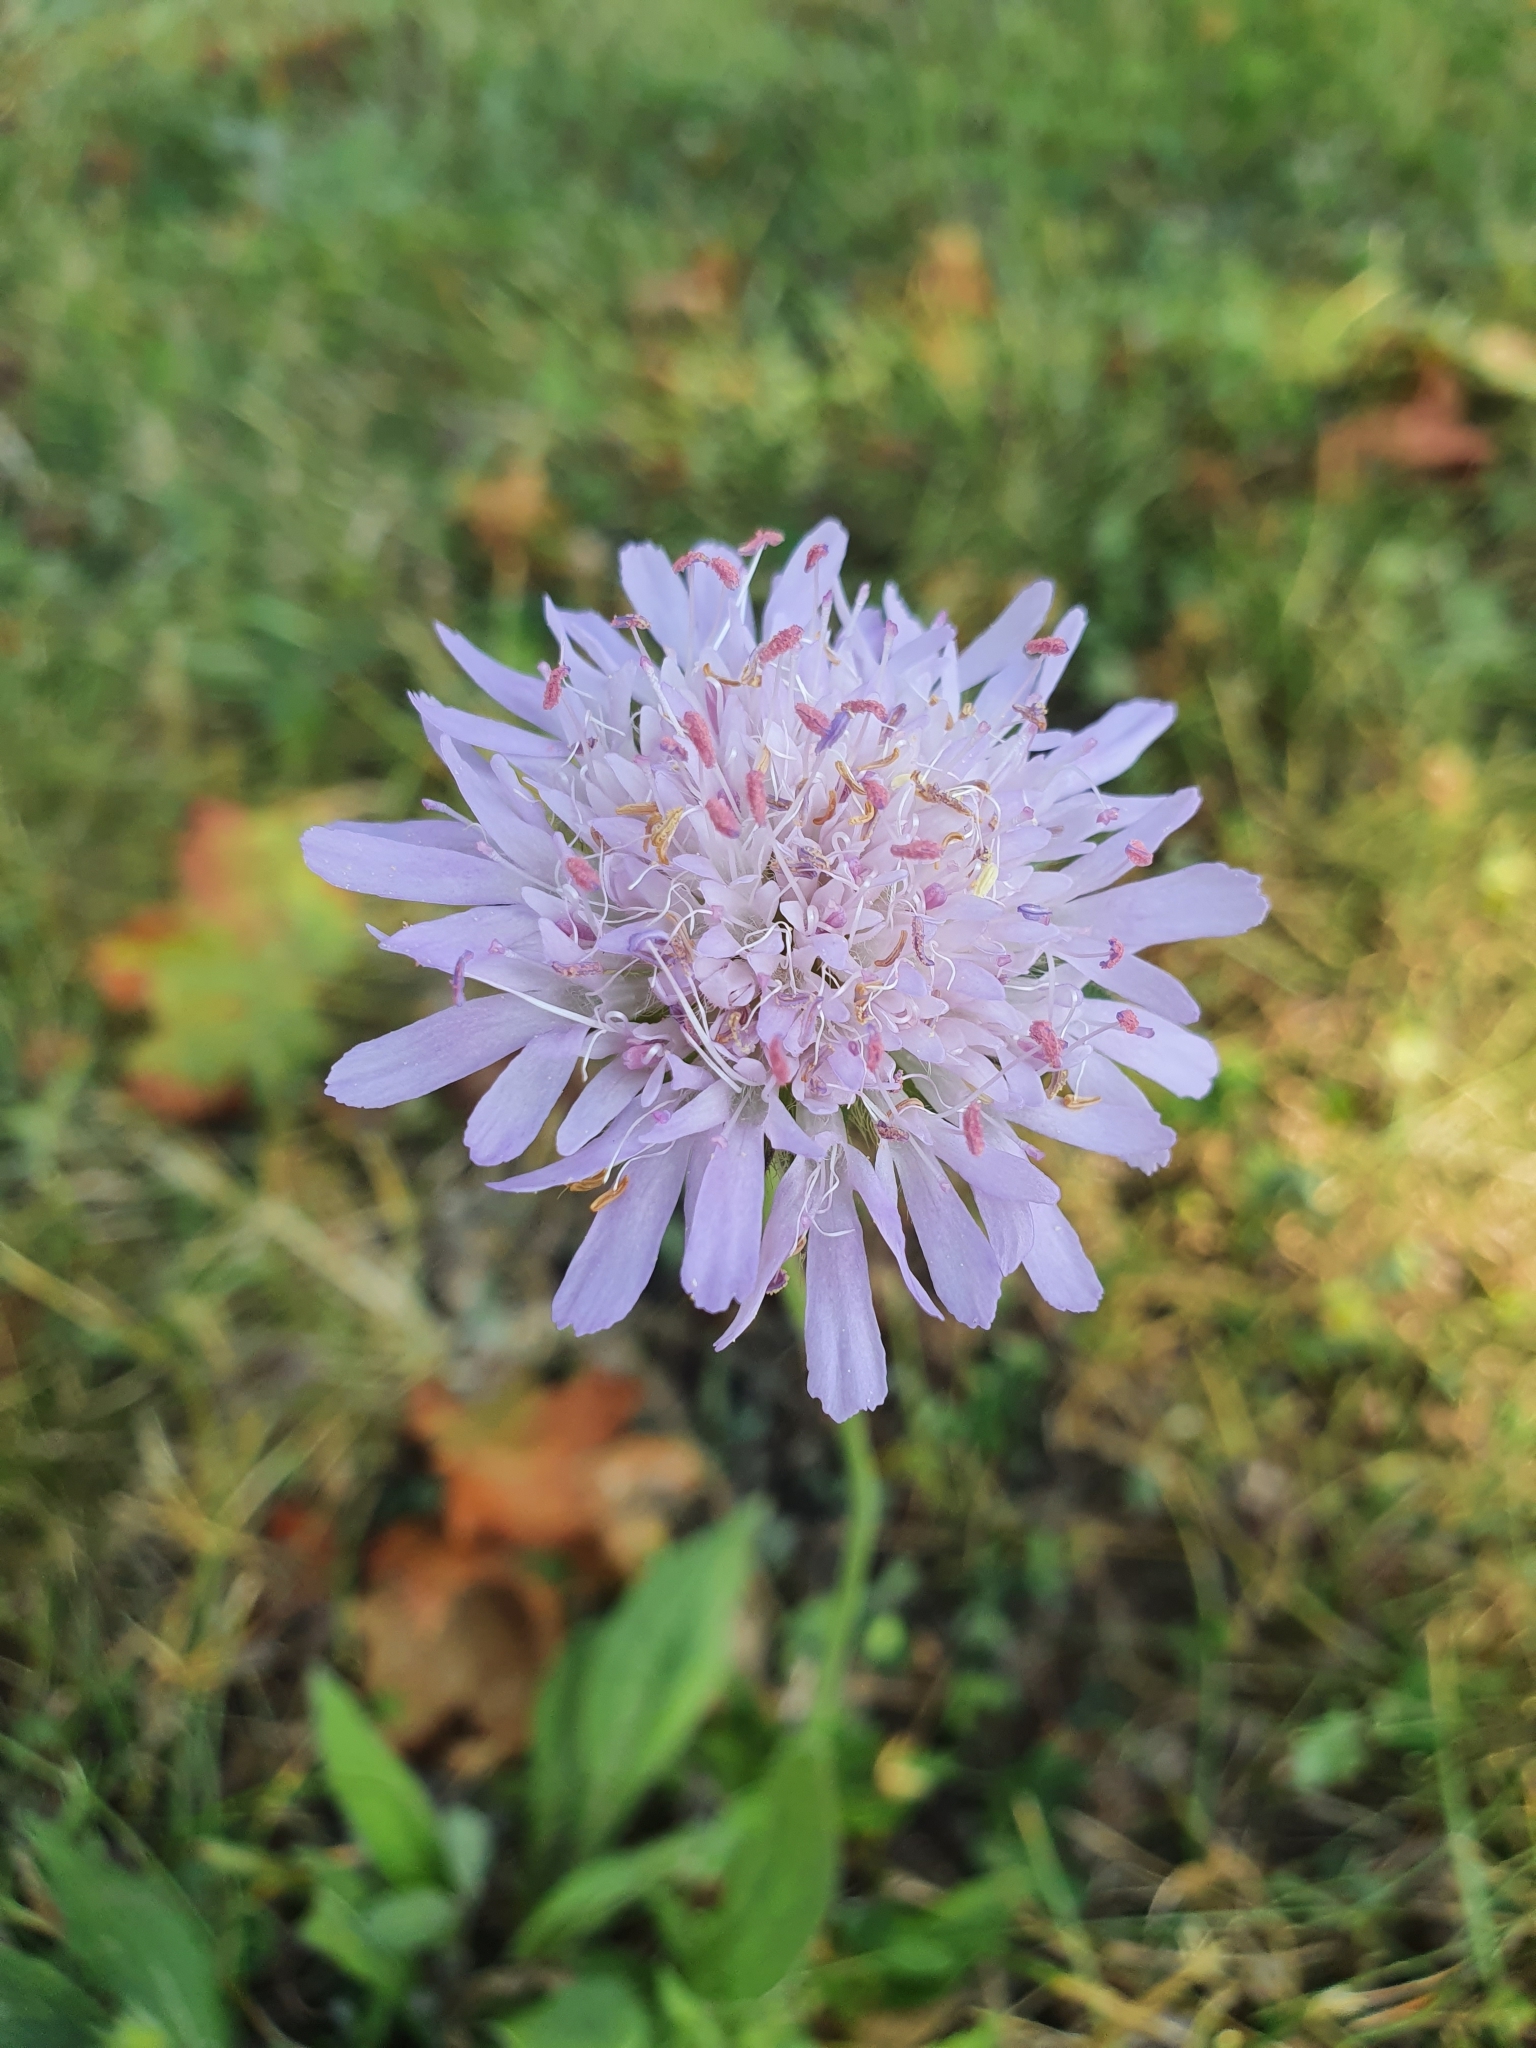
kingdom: Plantae
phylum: Tracheophyta
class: Magnoliopsida
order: Dipsacales
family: Caprifoliaceae
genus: Knautia
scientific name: Knautia arvensis
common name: Field scabiosa
